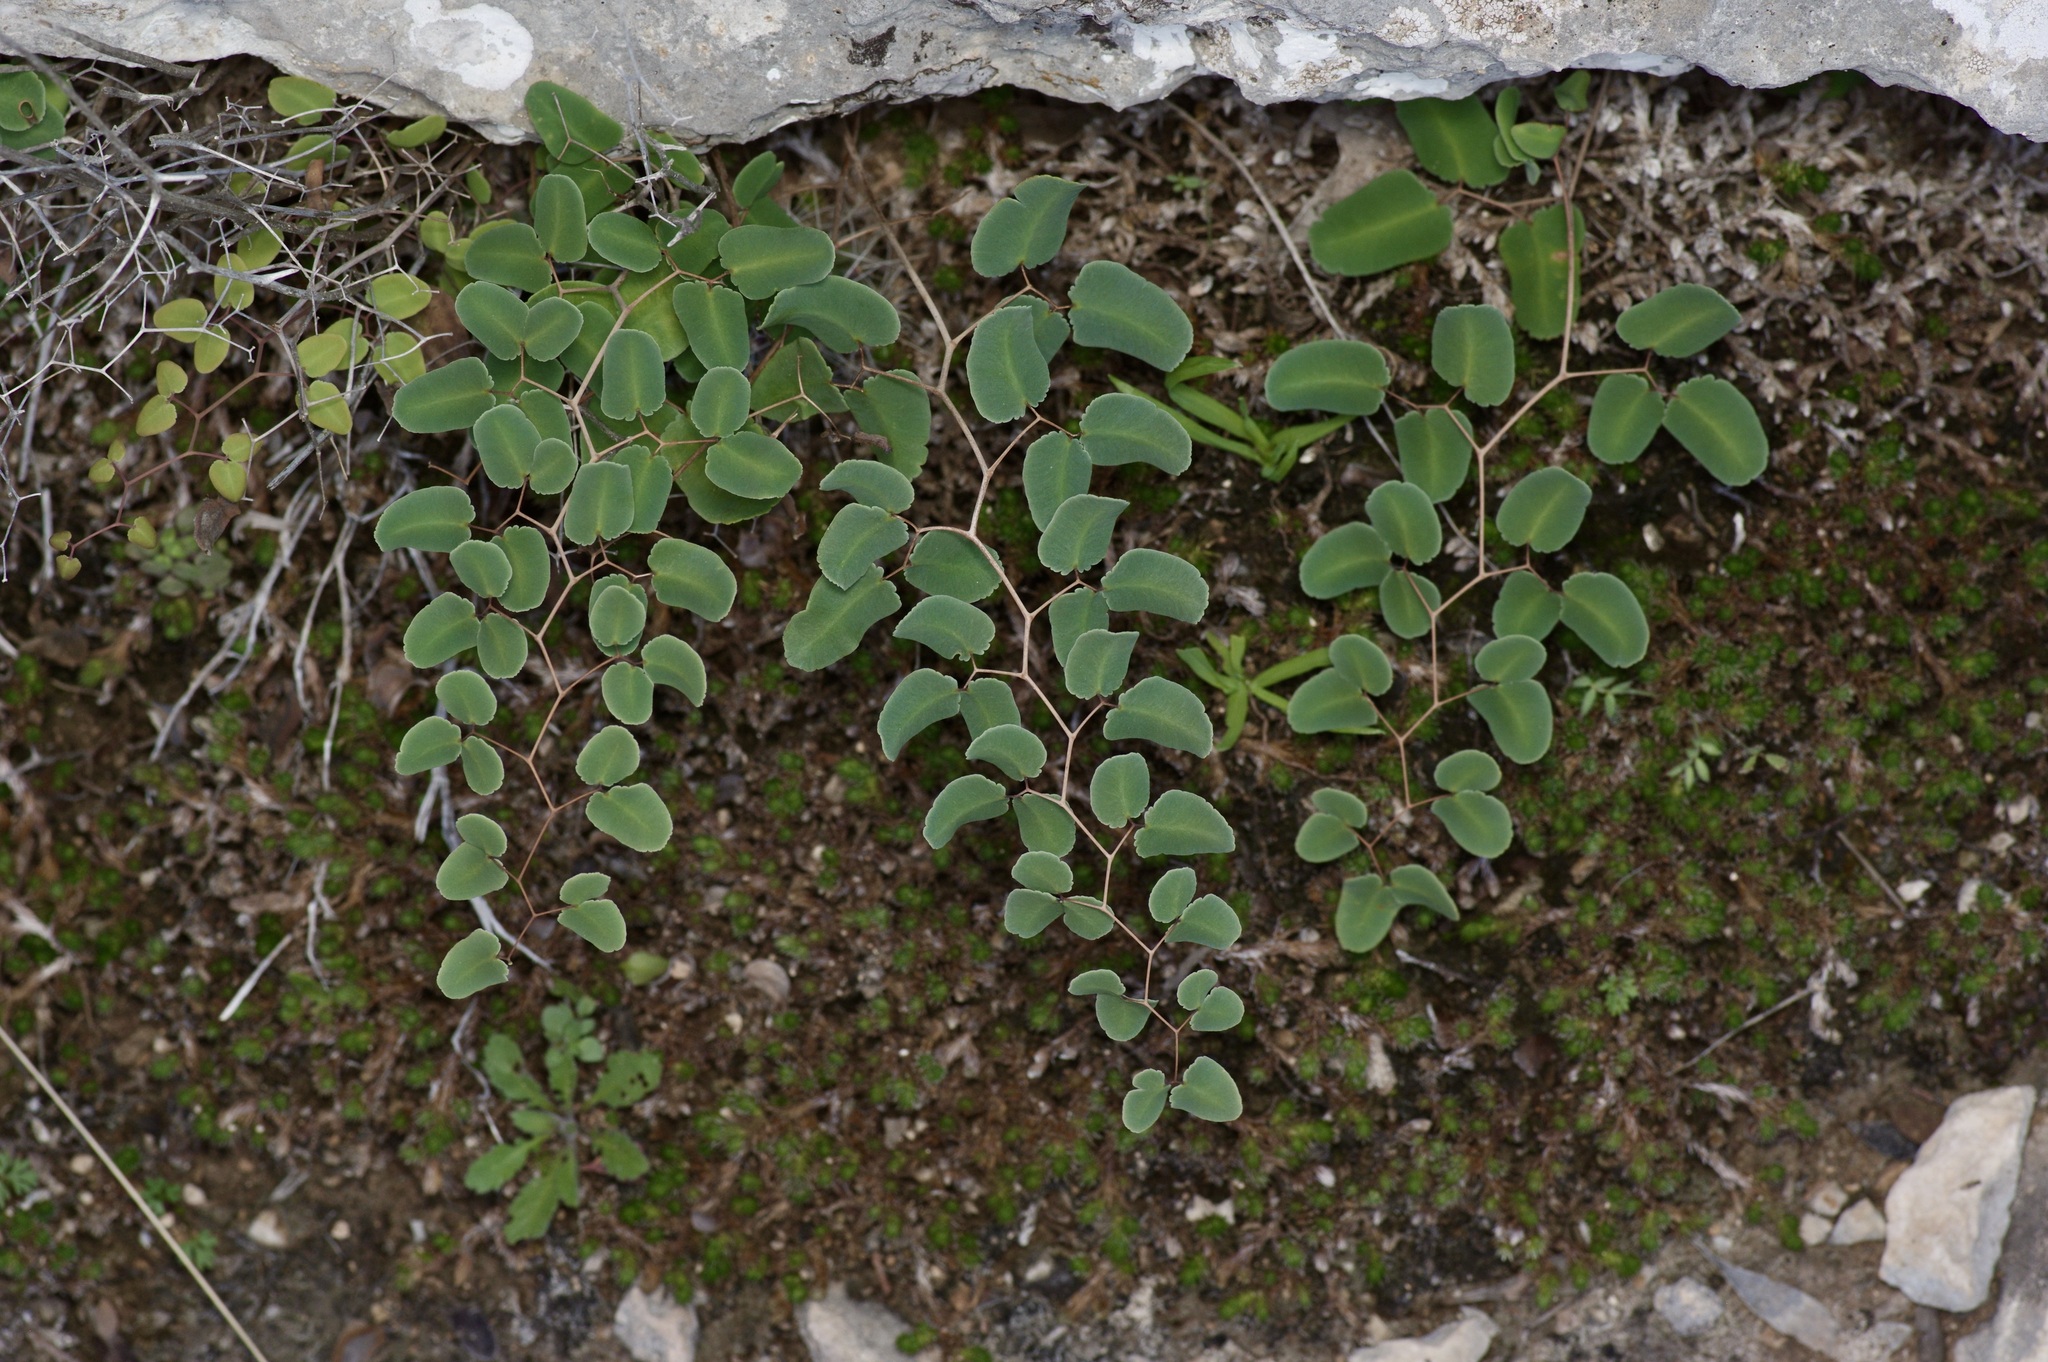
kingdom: Plantae
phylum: Tracheophyta
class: Polypodiopsida
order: Polypodiales
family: Pteridaceae
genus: Pellaea
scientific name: Pellaea ovata
